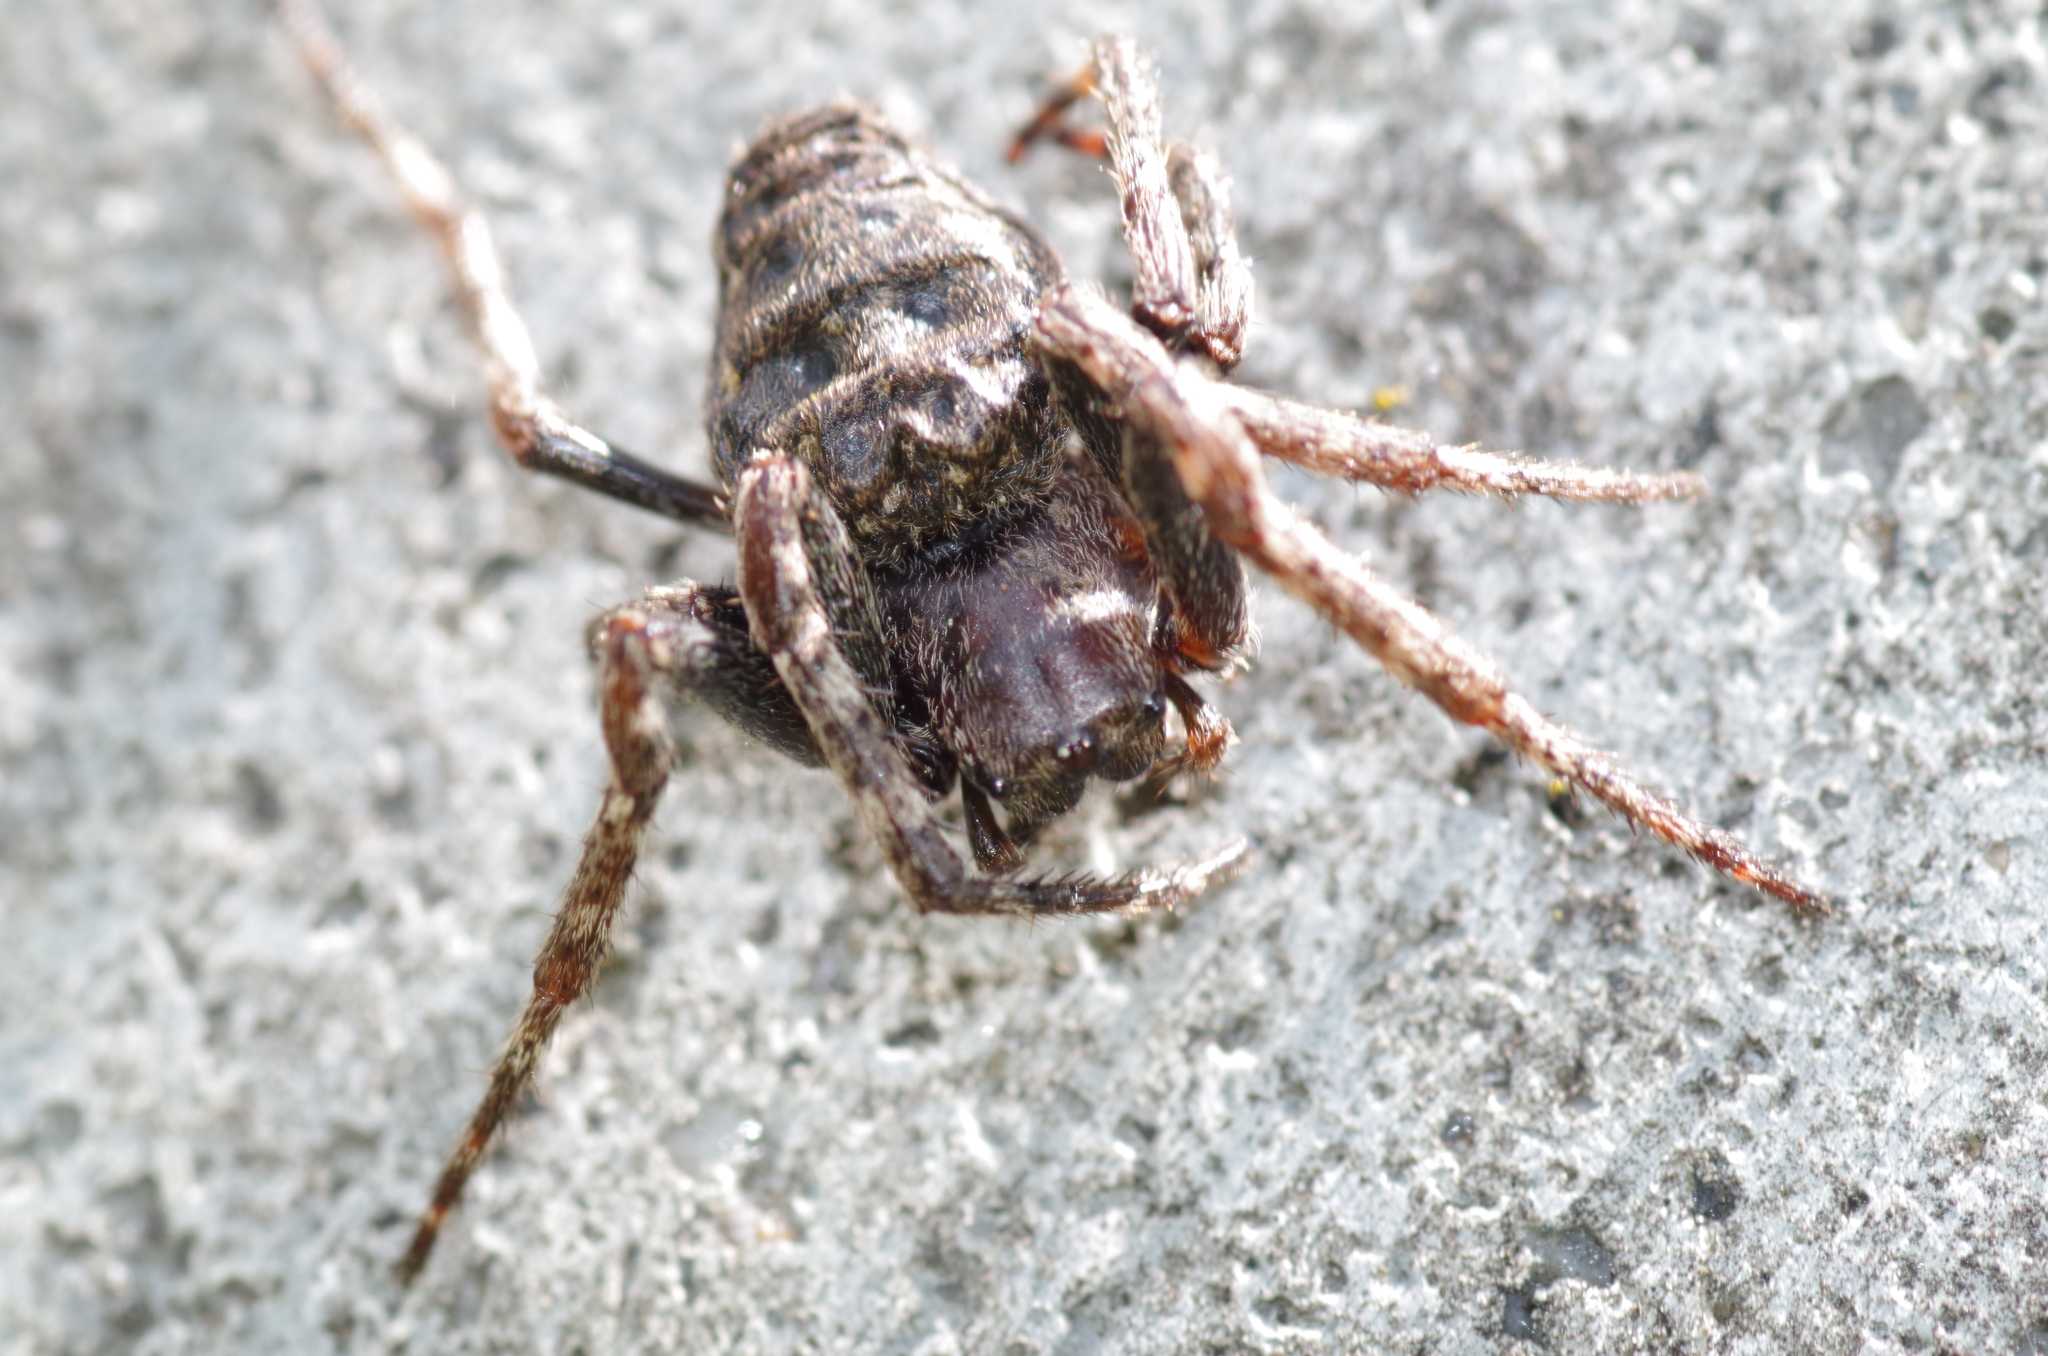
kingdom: Animalia
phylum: Arthropoda
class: Arachnida
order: Araneae
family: Araneidae
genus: Nuctenea
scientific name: Nuctenea umbratica
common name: Toad spider
